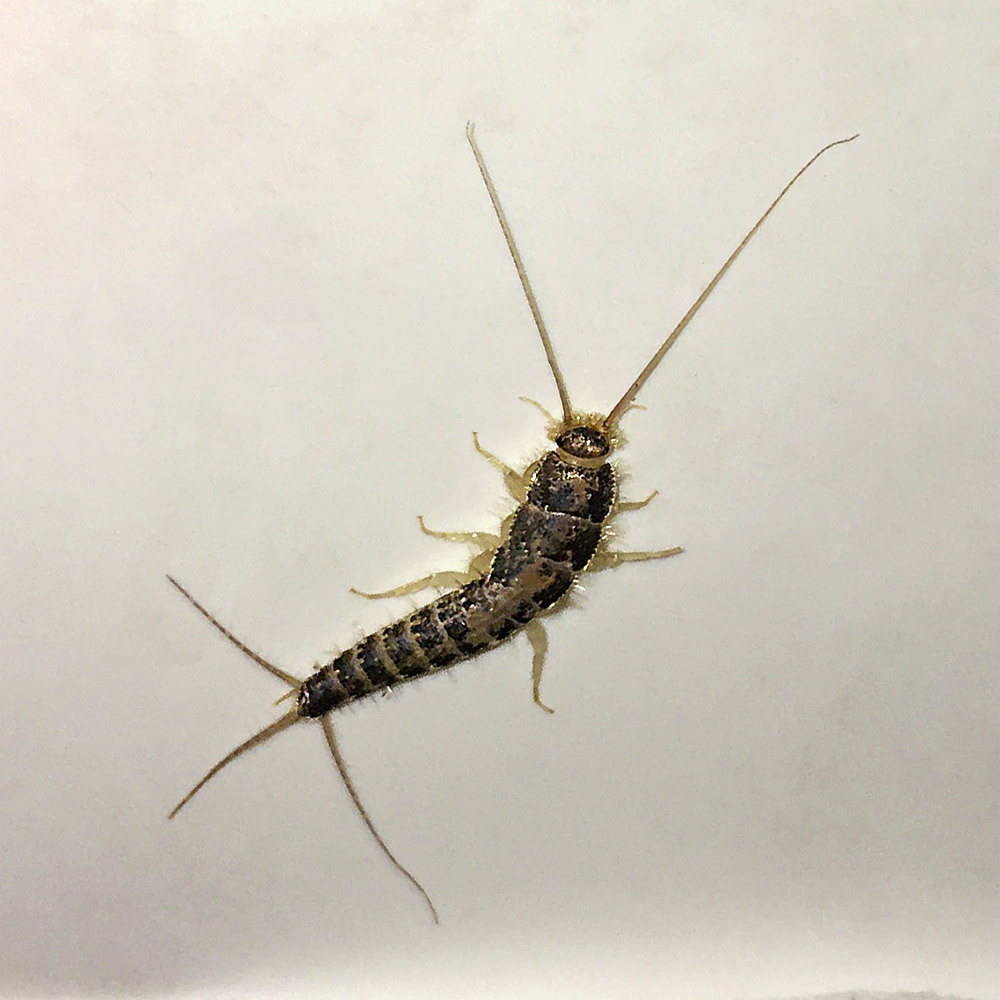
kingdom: Animalia
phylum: Arthropoda
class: Insecta
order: Zygentoma
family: Lepismatidae
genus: Ctenolepisma
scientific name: Ctenolepisma longicaudatum
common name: Silverfish
